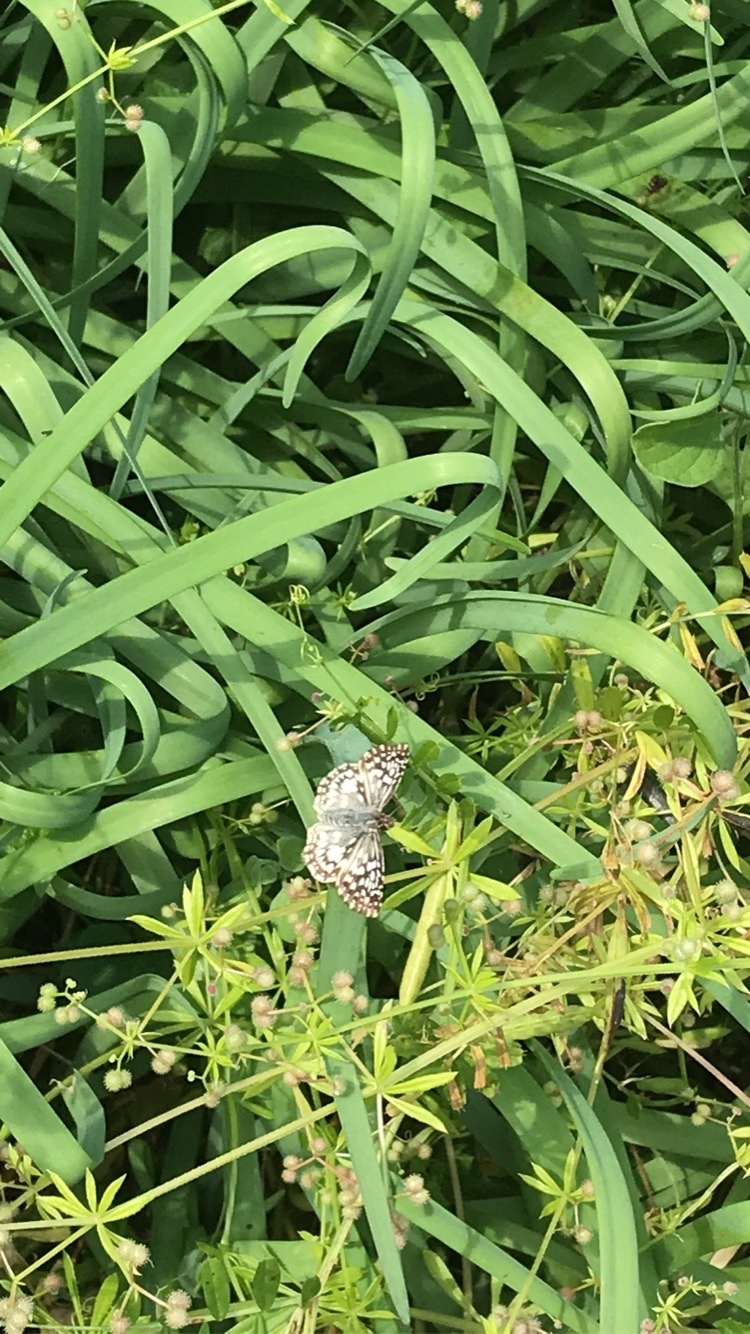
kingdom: Animalia
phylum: Arthropoda
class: Insecta
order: Lepidoptera
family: Hesperiidae
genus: Pyrgus
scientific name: Pyrgus oileus
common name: Tropical checkered-skipper
